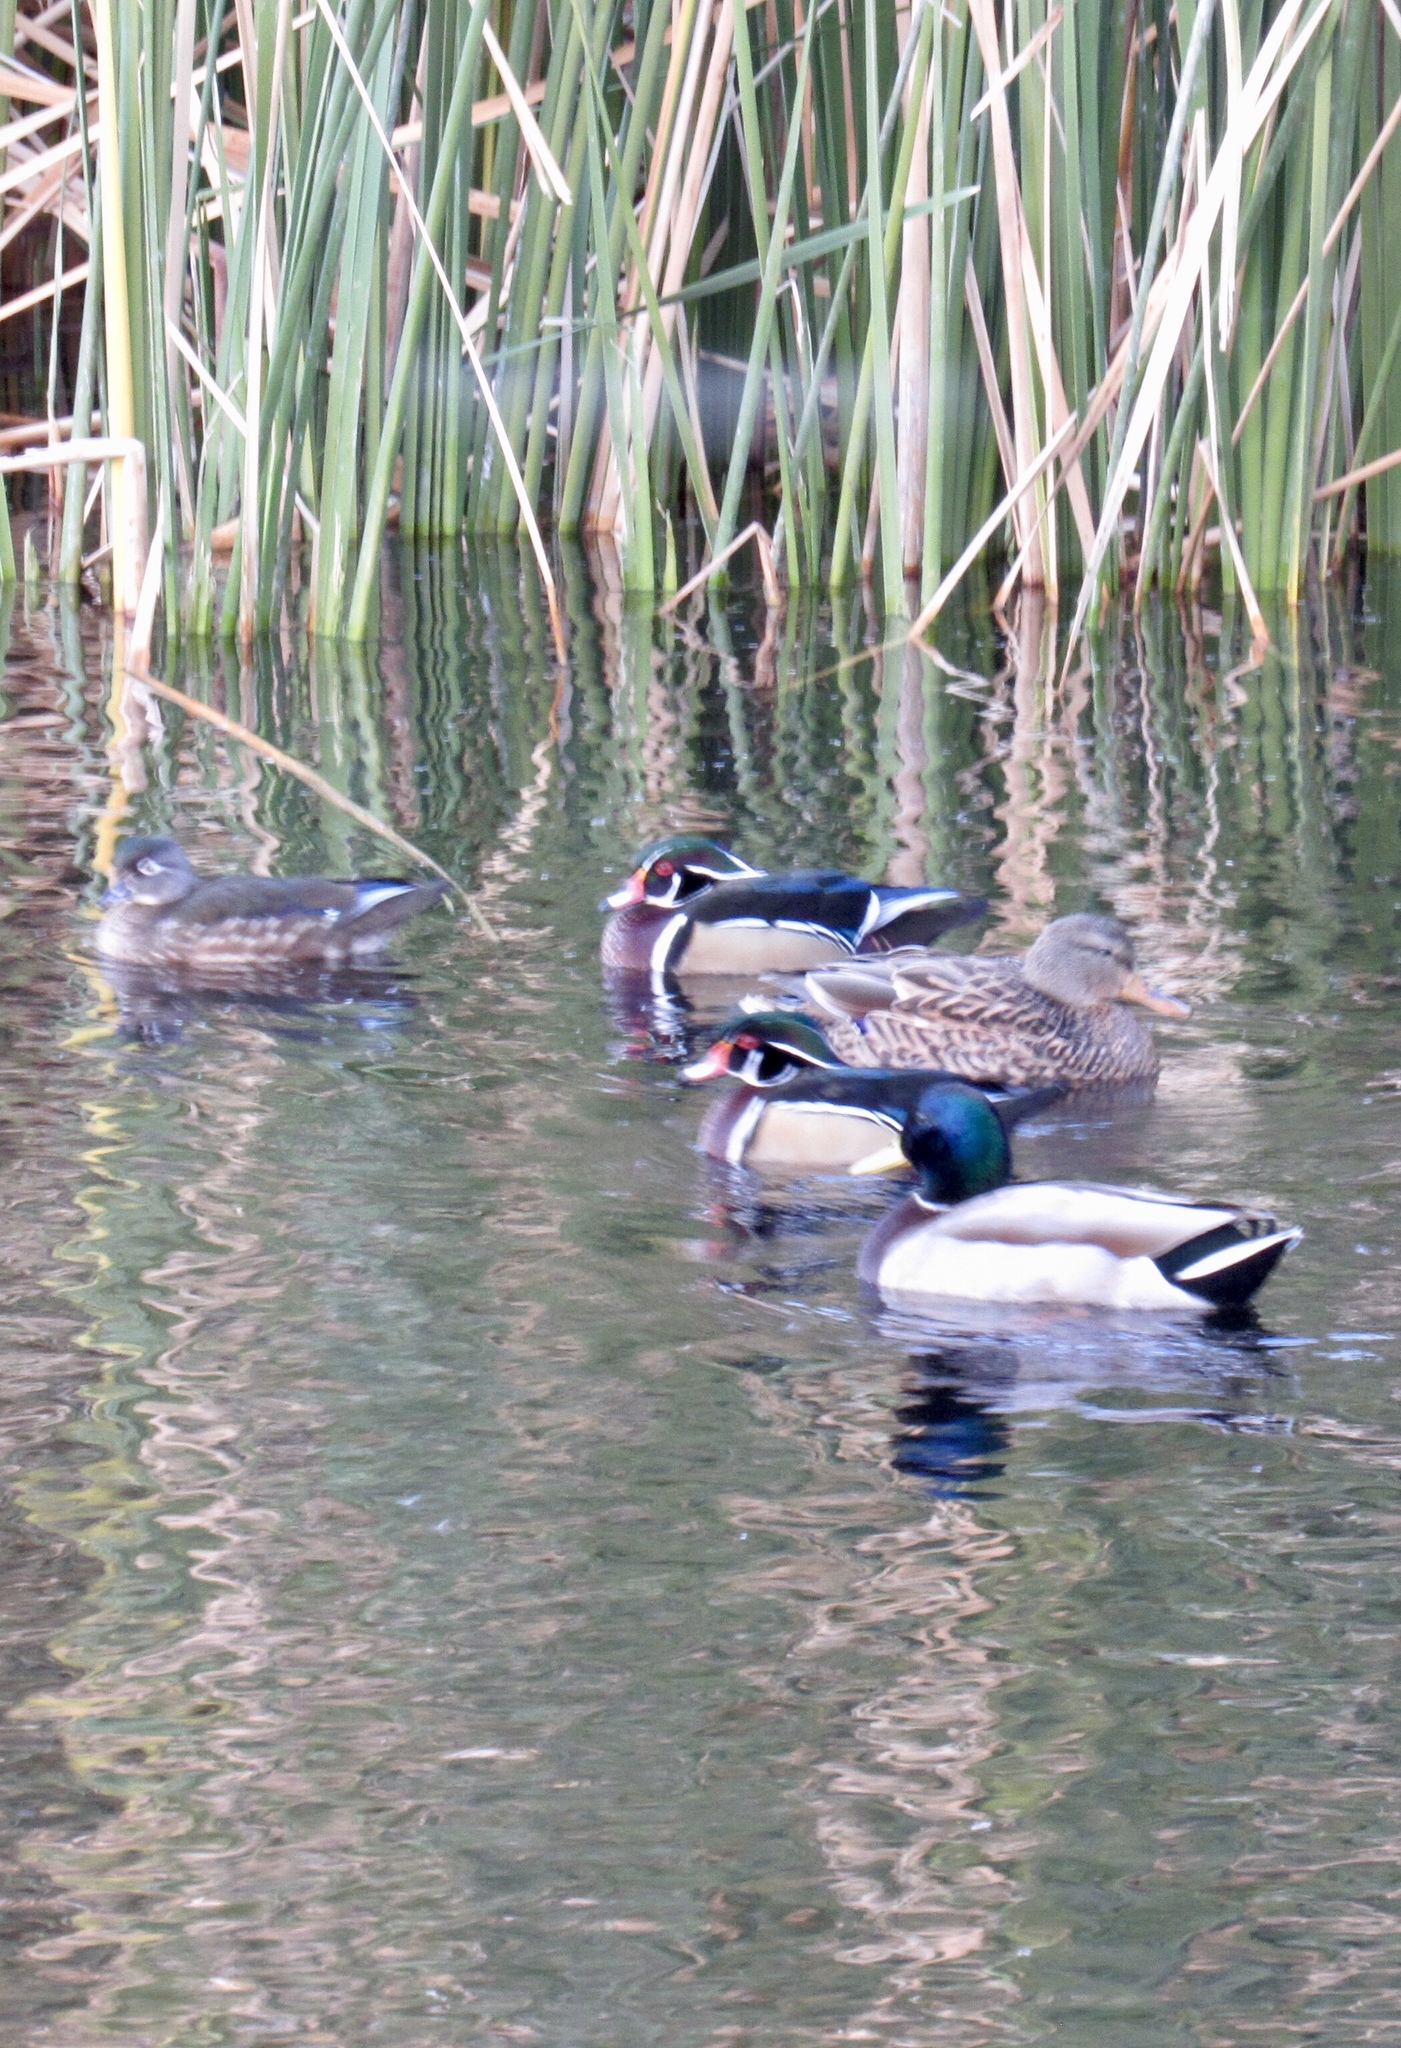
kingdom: Animalia
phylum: Chordata
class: Aves
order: Anseriformes
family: Anatidae
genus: Anas
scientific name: Anas platyrhynchos
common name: Mallard
